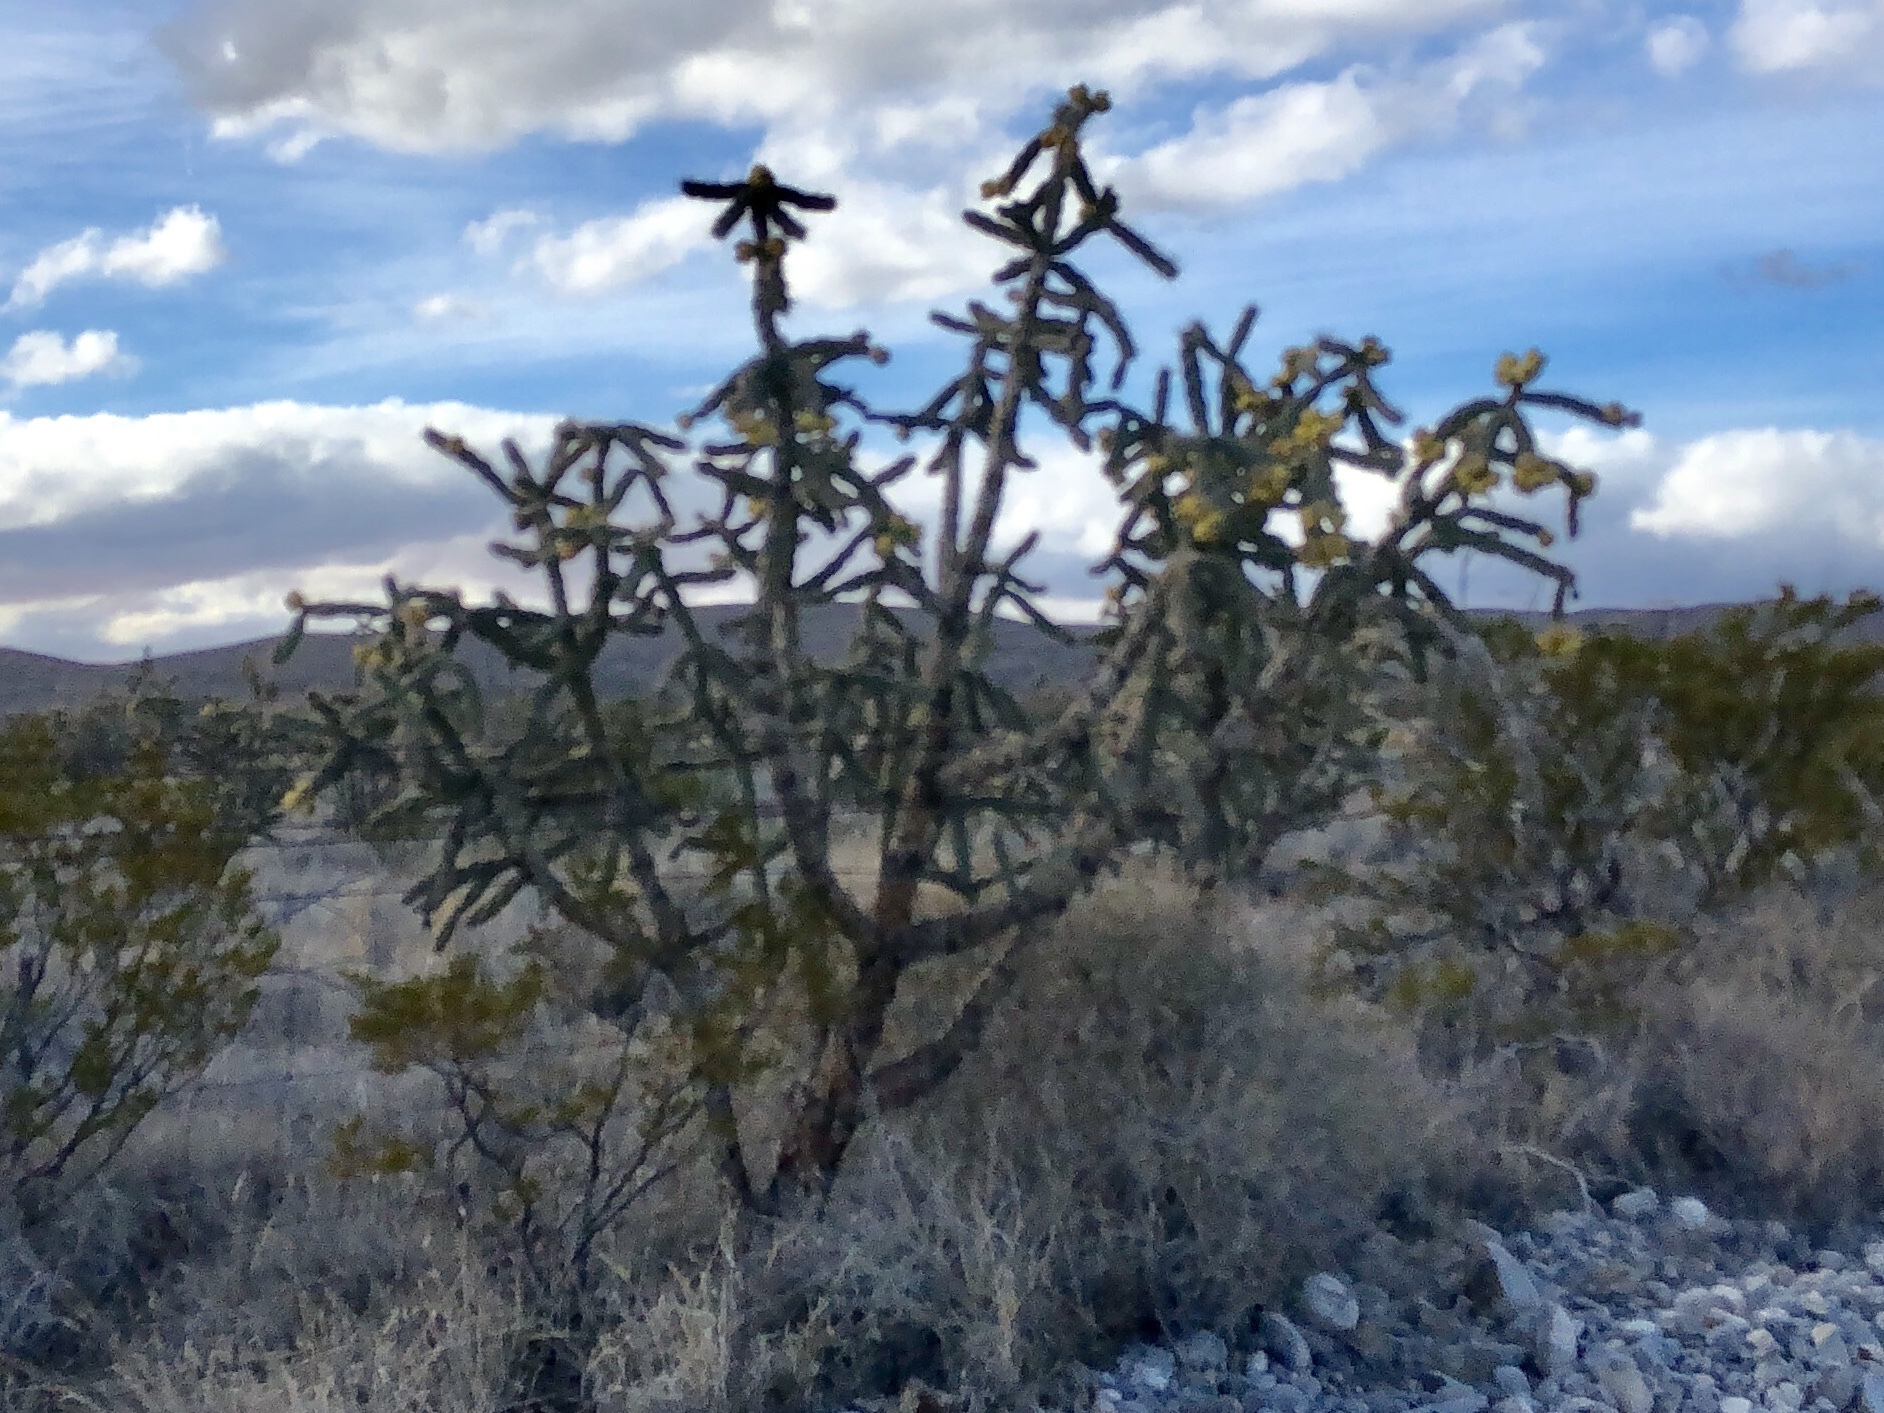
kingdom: Plantae
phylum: Tracheophyta
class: Magnoliopsida
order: Caryophyllales
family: Cactaceae
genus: Cylindropuntia
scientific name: Cylindropuntia imbricata
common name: Candelabrum cactus
